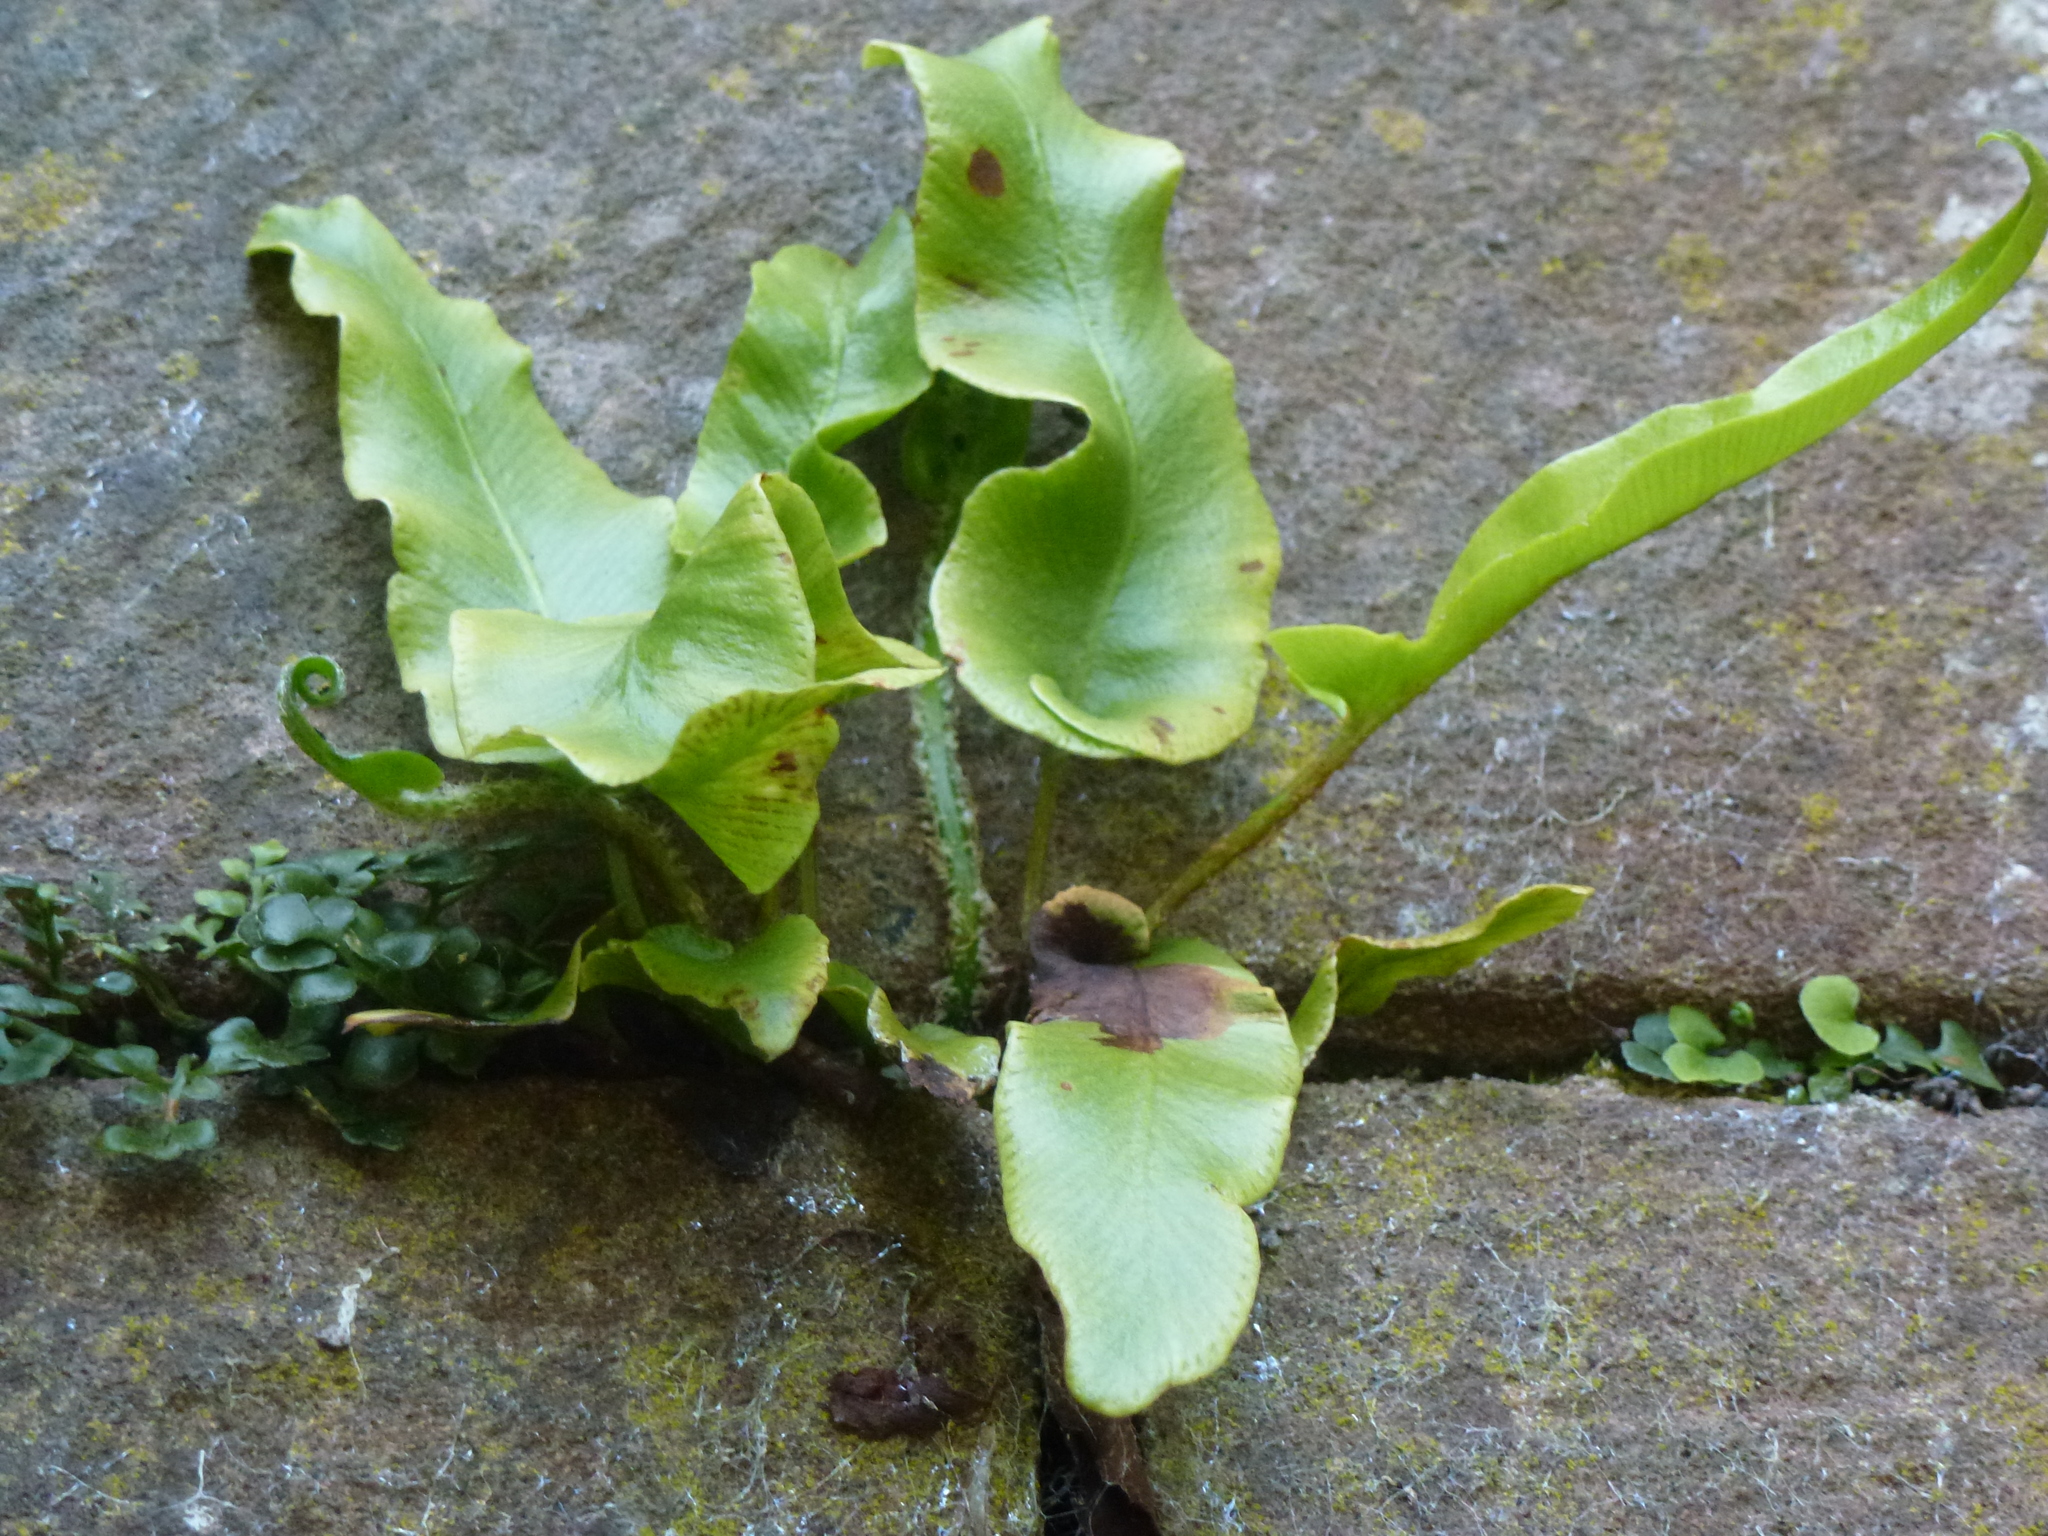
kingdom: Plantae
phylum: Tracheophyta
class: Polypodiopsida
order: Polypodiales
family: Aspleniaceae
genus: Asplenium
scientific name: Asplenium scolopendrium
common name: Hart's-tongue fern
